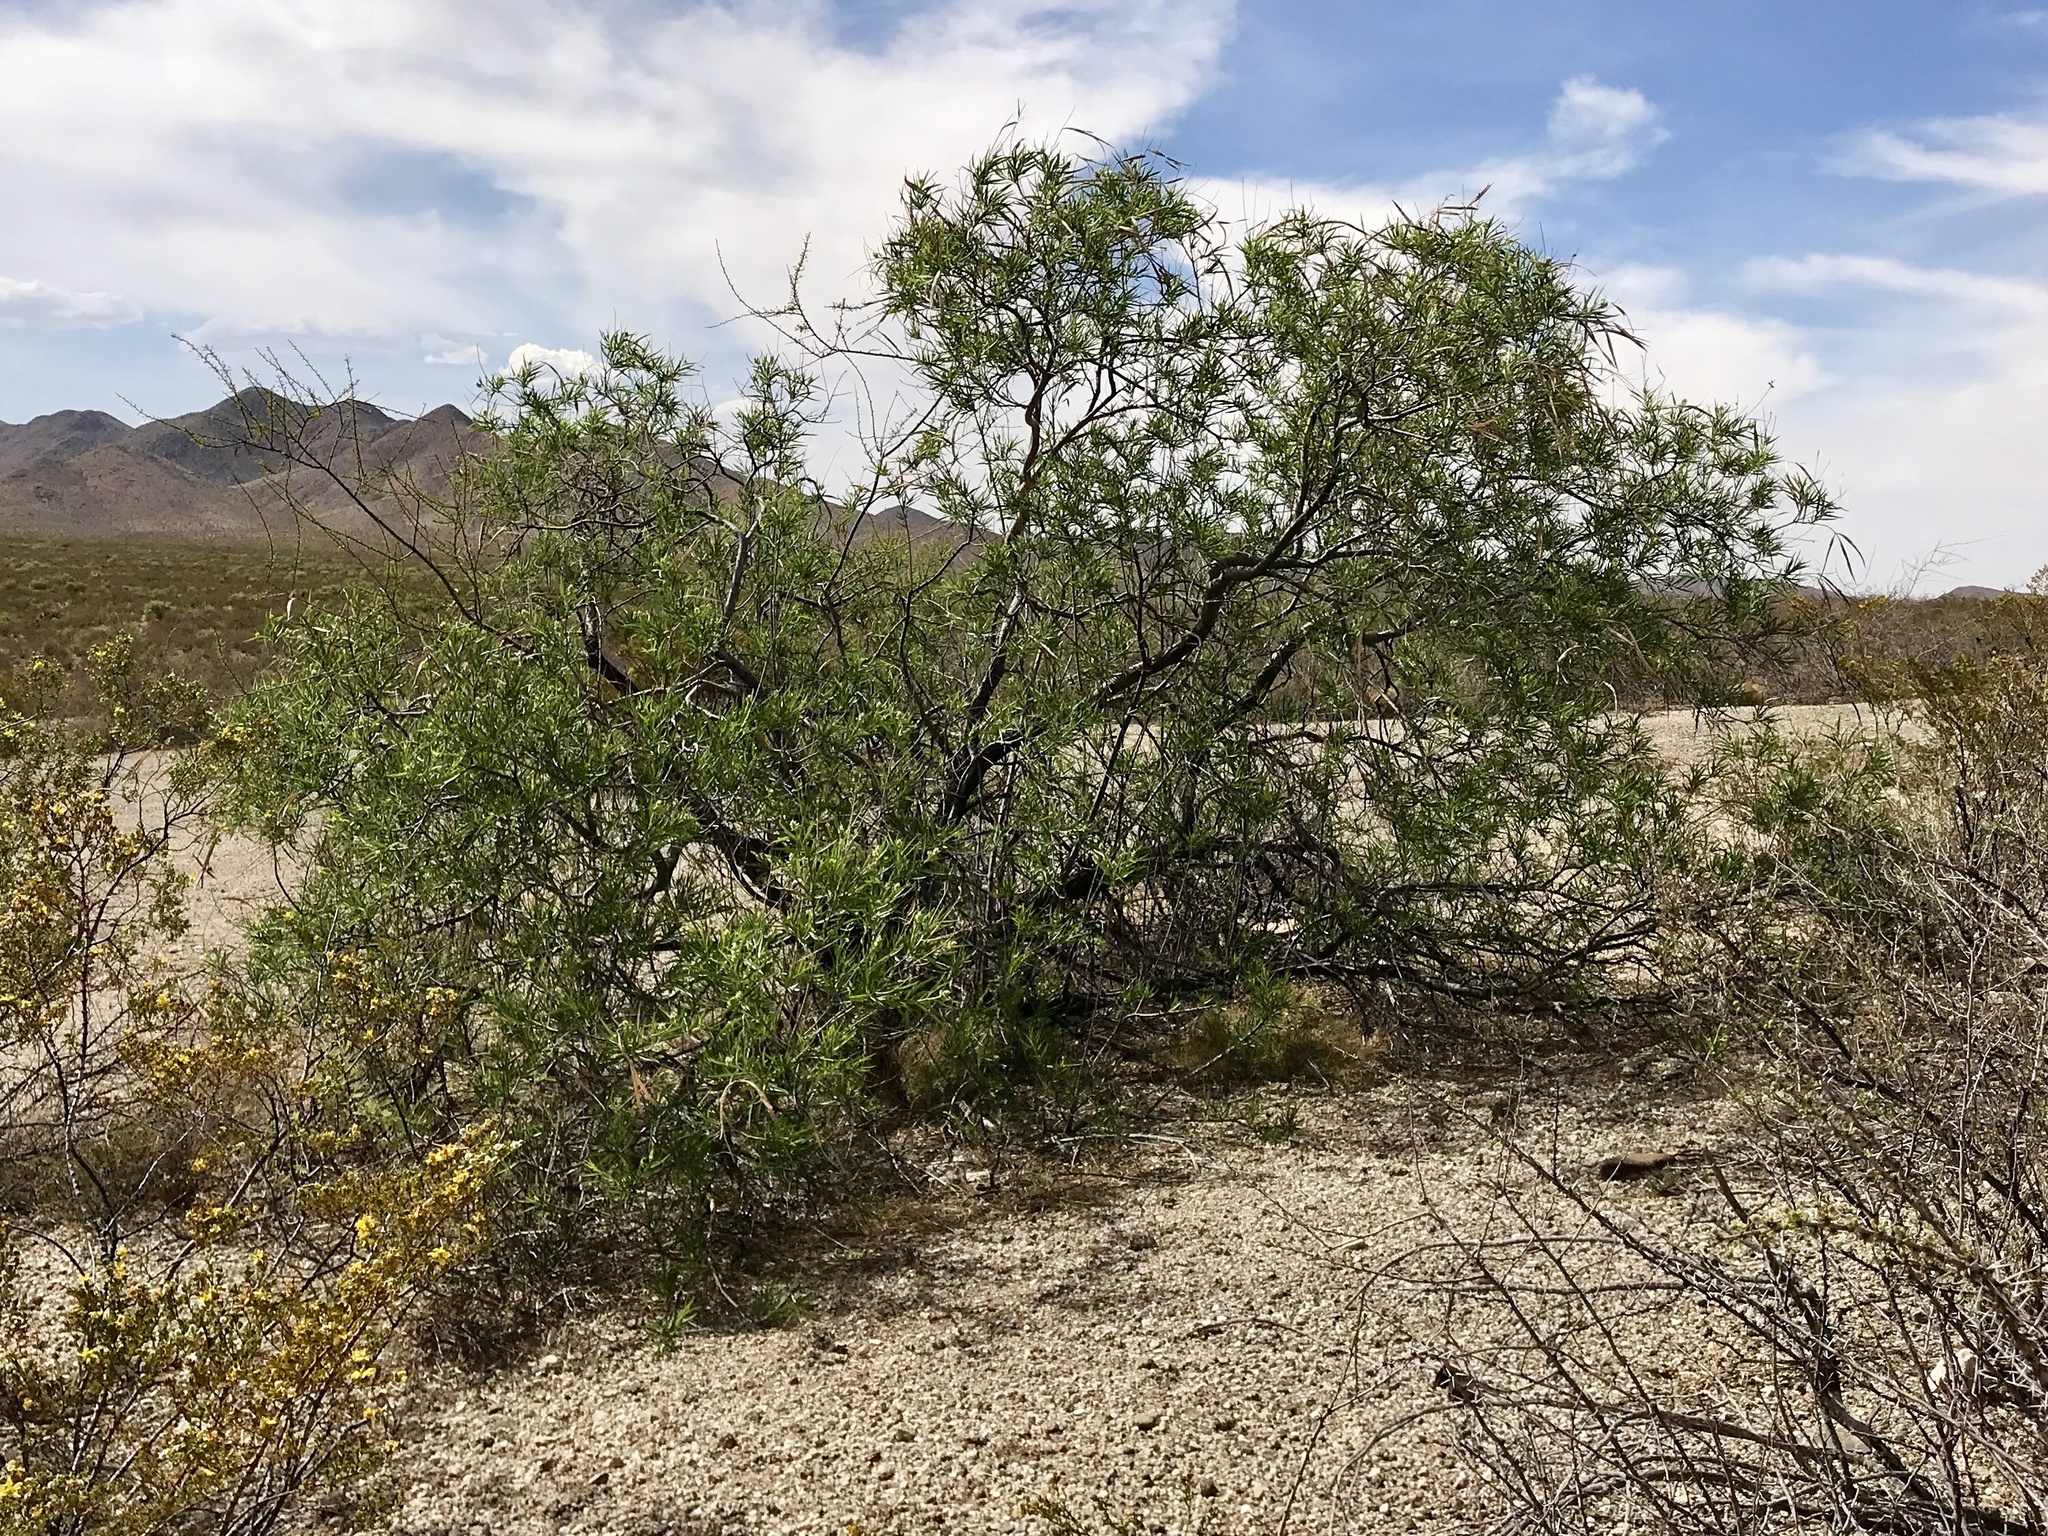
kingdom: Plantae
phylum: Tracheophyta
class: Magnoliopsida
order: Lamiales
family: Bignoniaceae
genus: Chilopsis
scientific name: Chilopsis linearis
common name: Desert-willow
